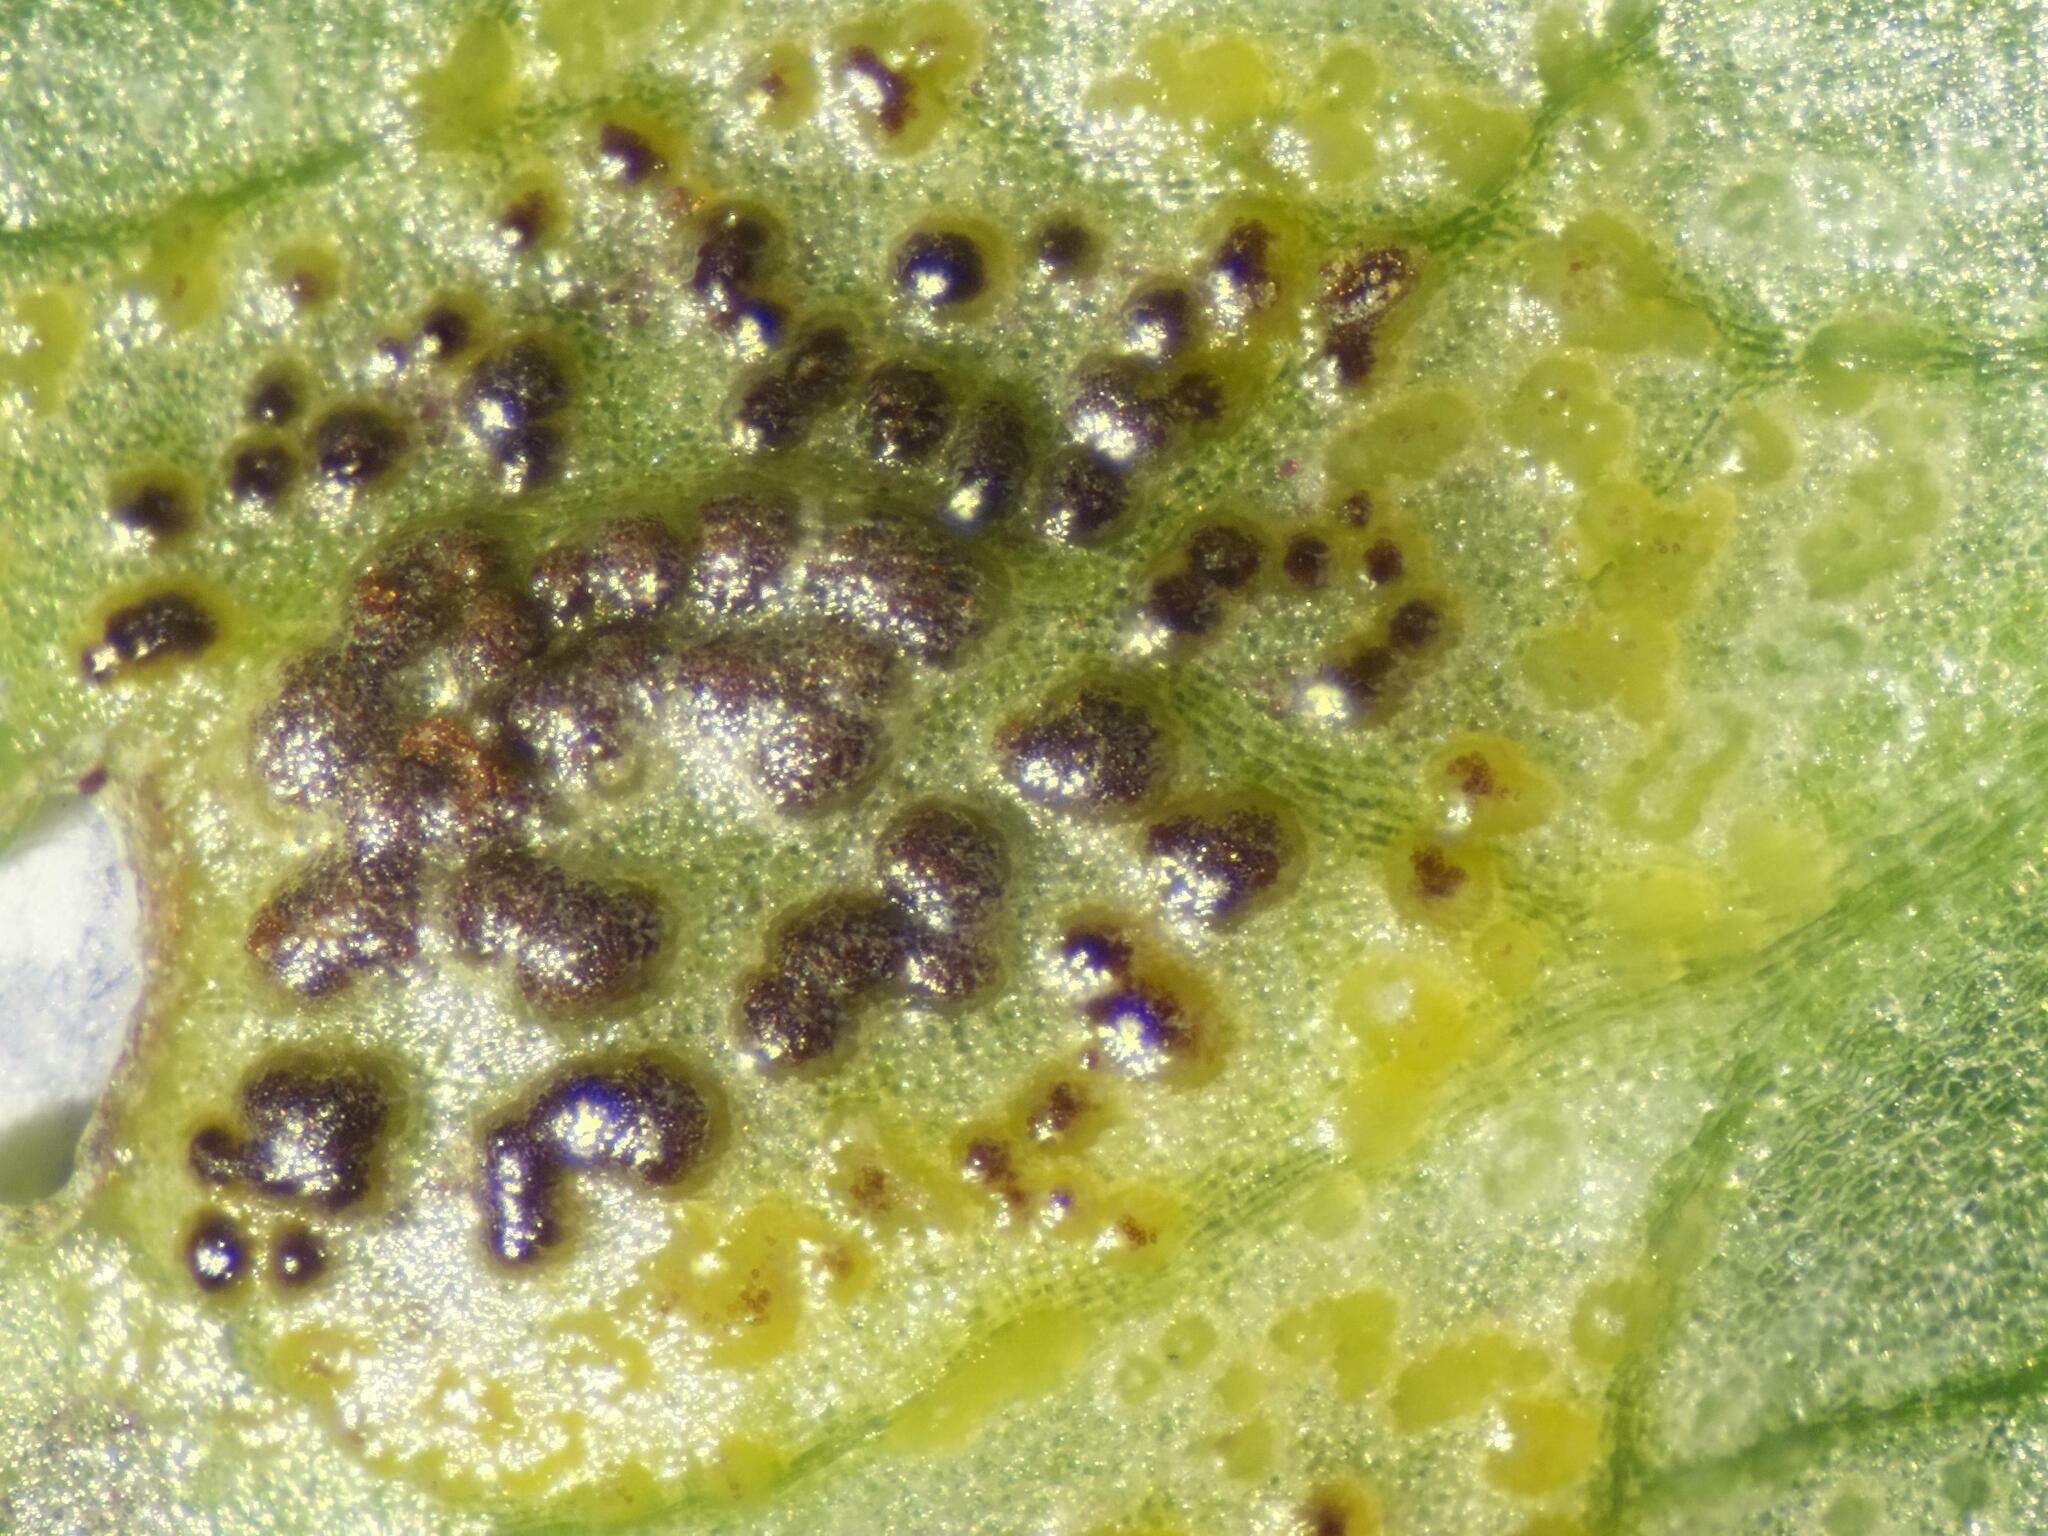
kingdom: Fungi
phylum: Basidiomycota
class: Pucciniomycetes
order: Pucciniales
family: Pucciniaceae
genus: Uromyces
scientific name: Uromyces ficariae
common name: Bitter chocolate rust
